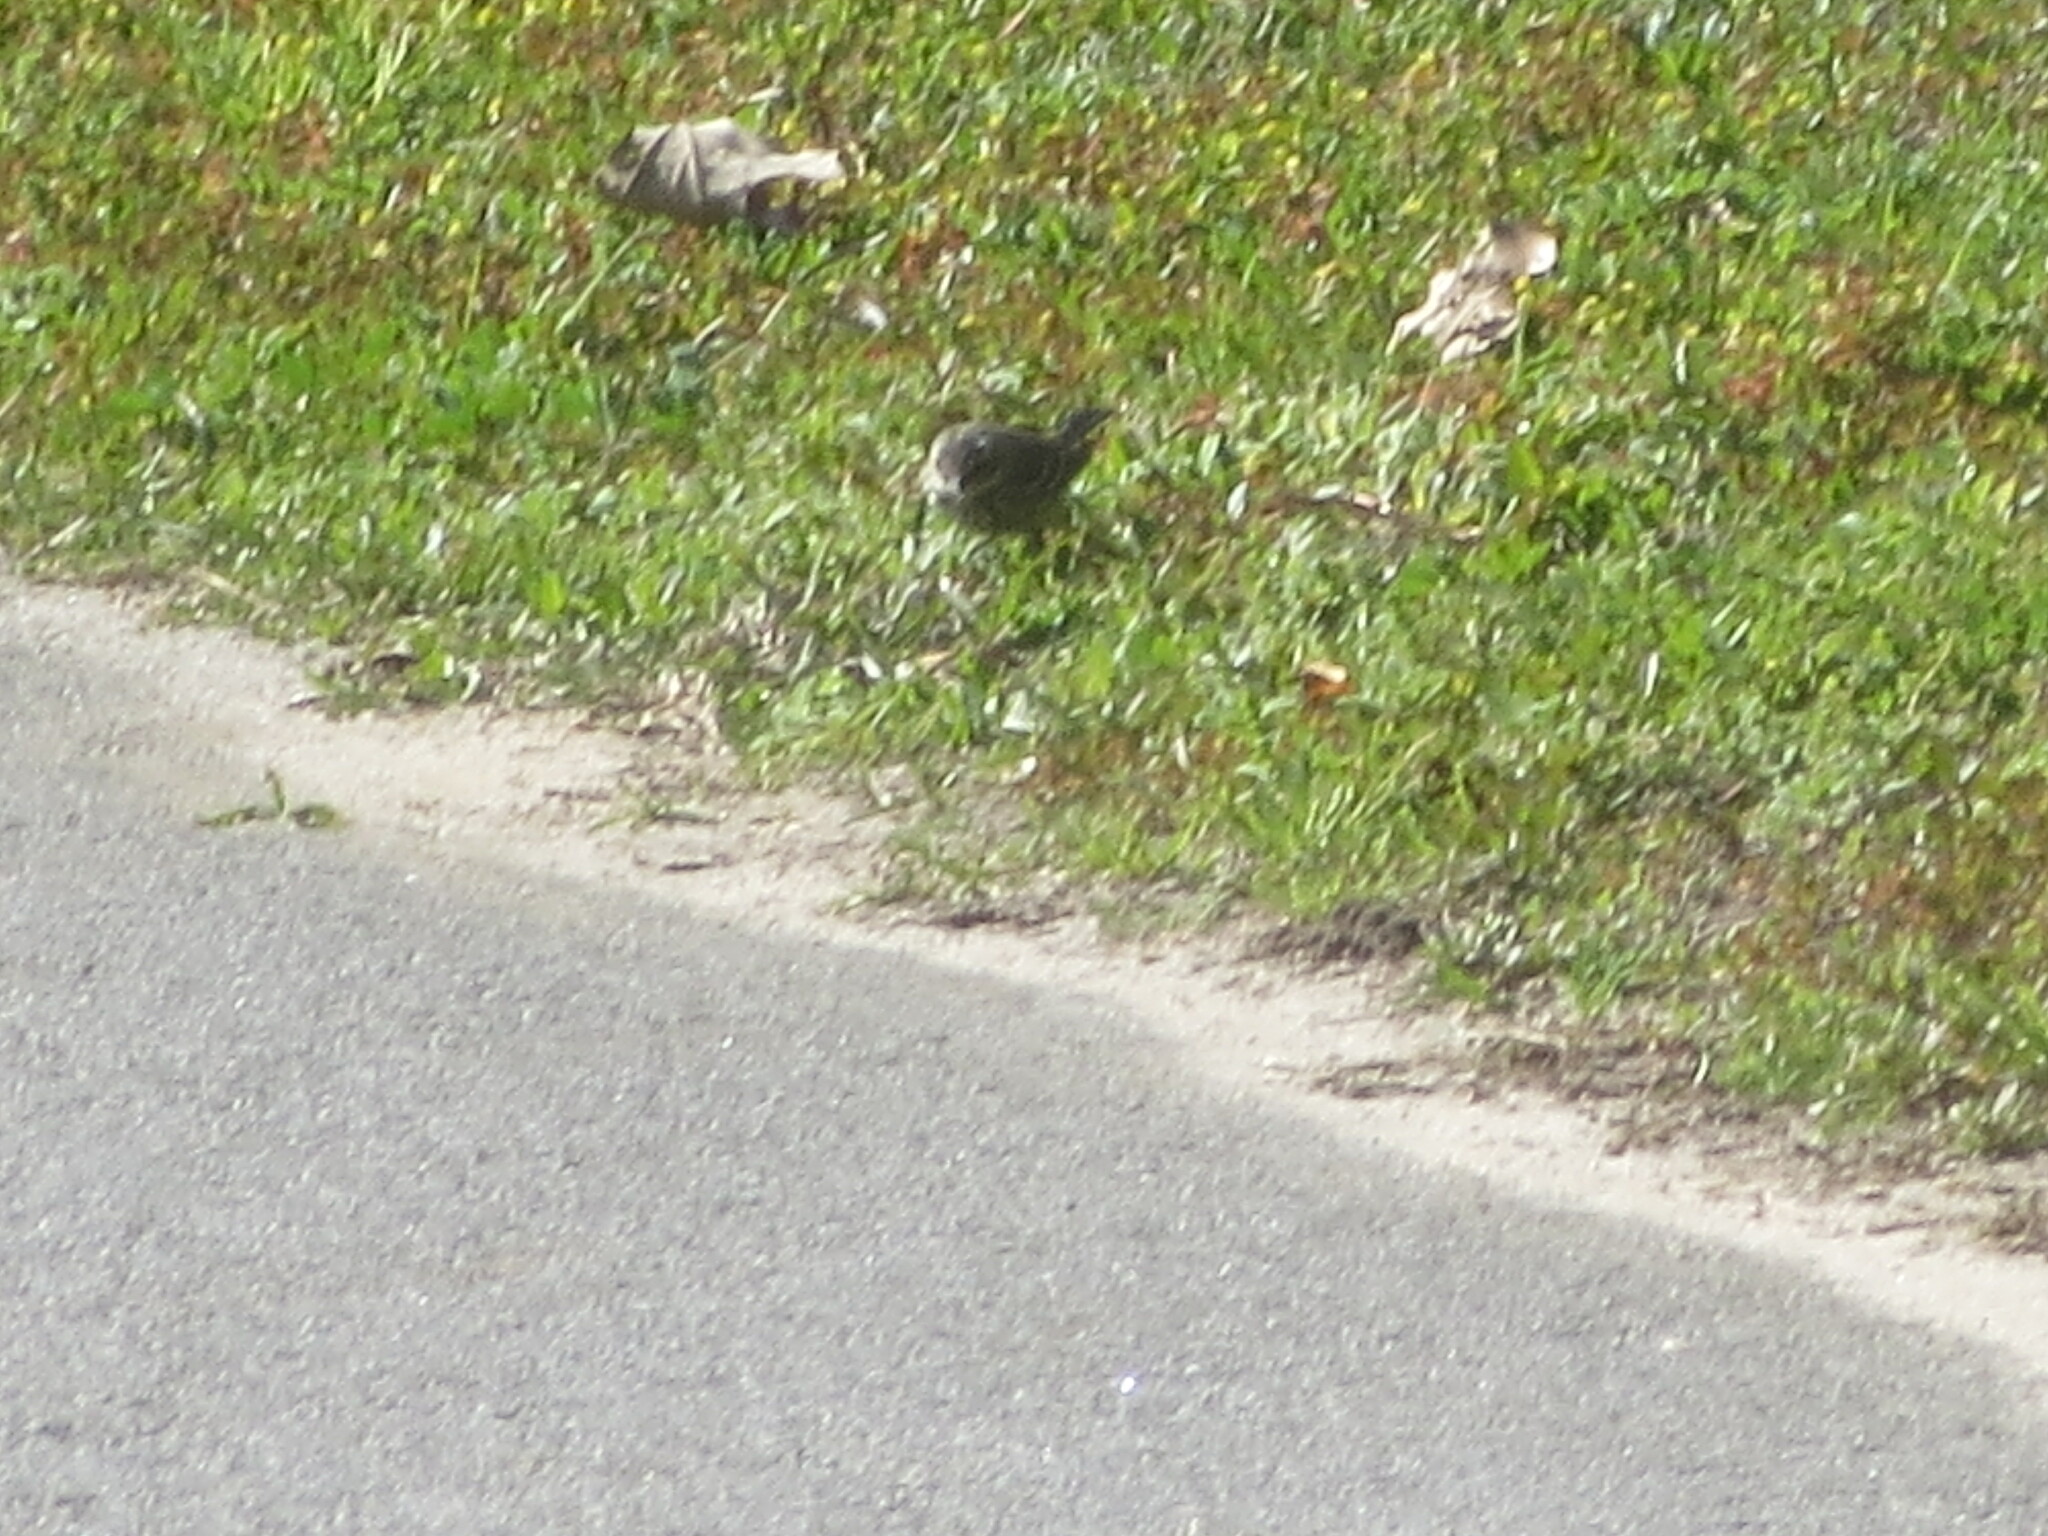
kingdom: Animalia
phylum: Chordata
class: Aves
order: Passeriformes
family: Parulidae
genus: Setophaga
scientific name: Setophaga coronata
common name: Myrtle warbler
